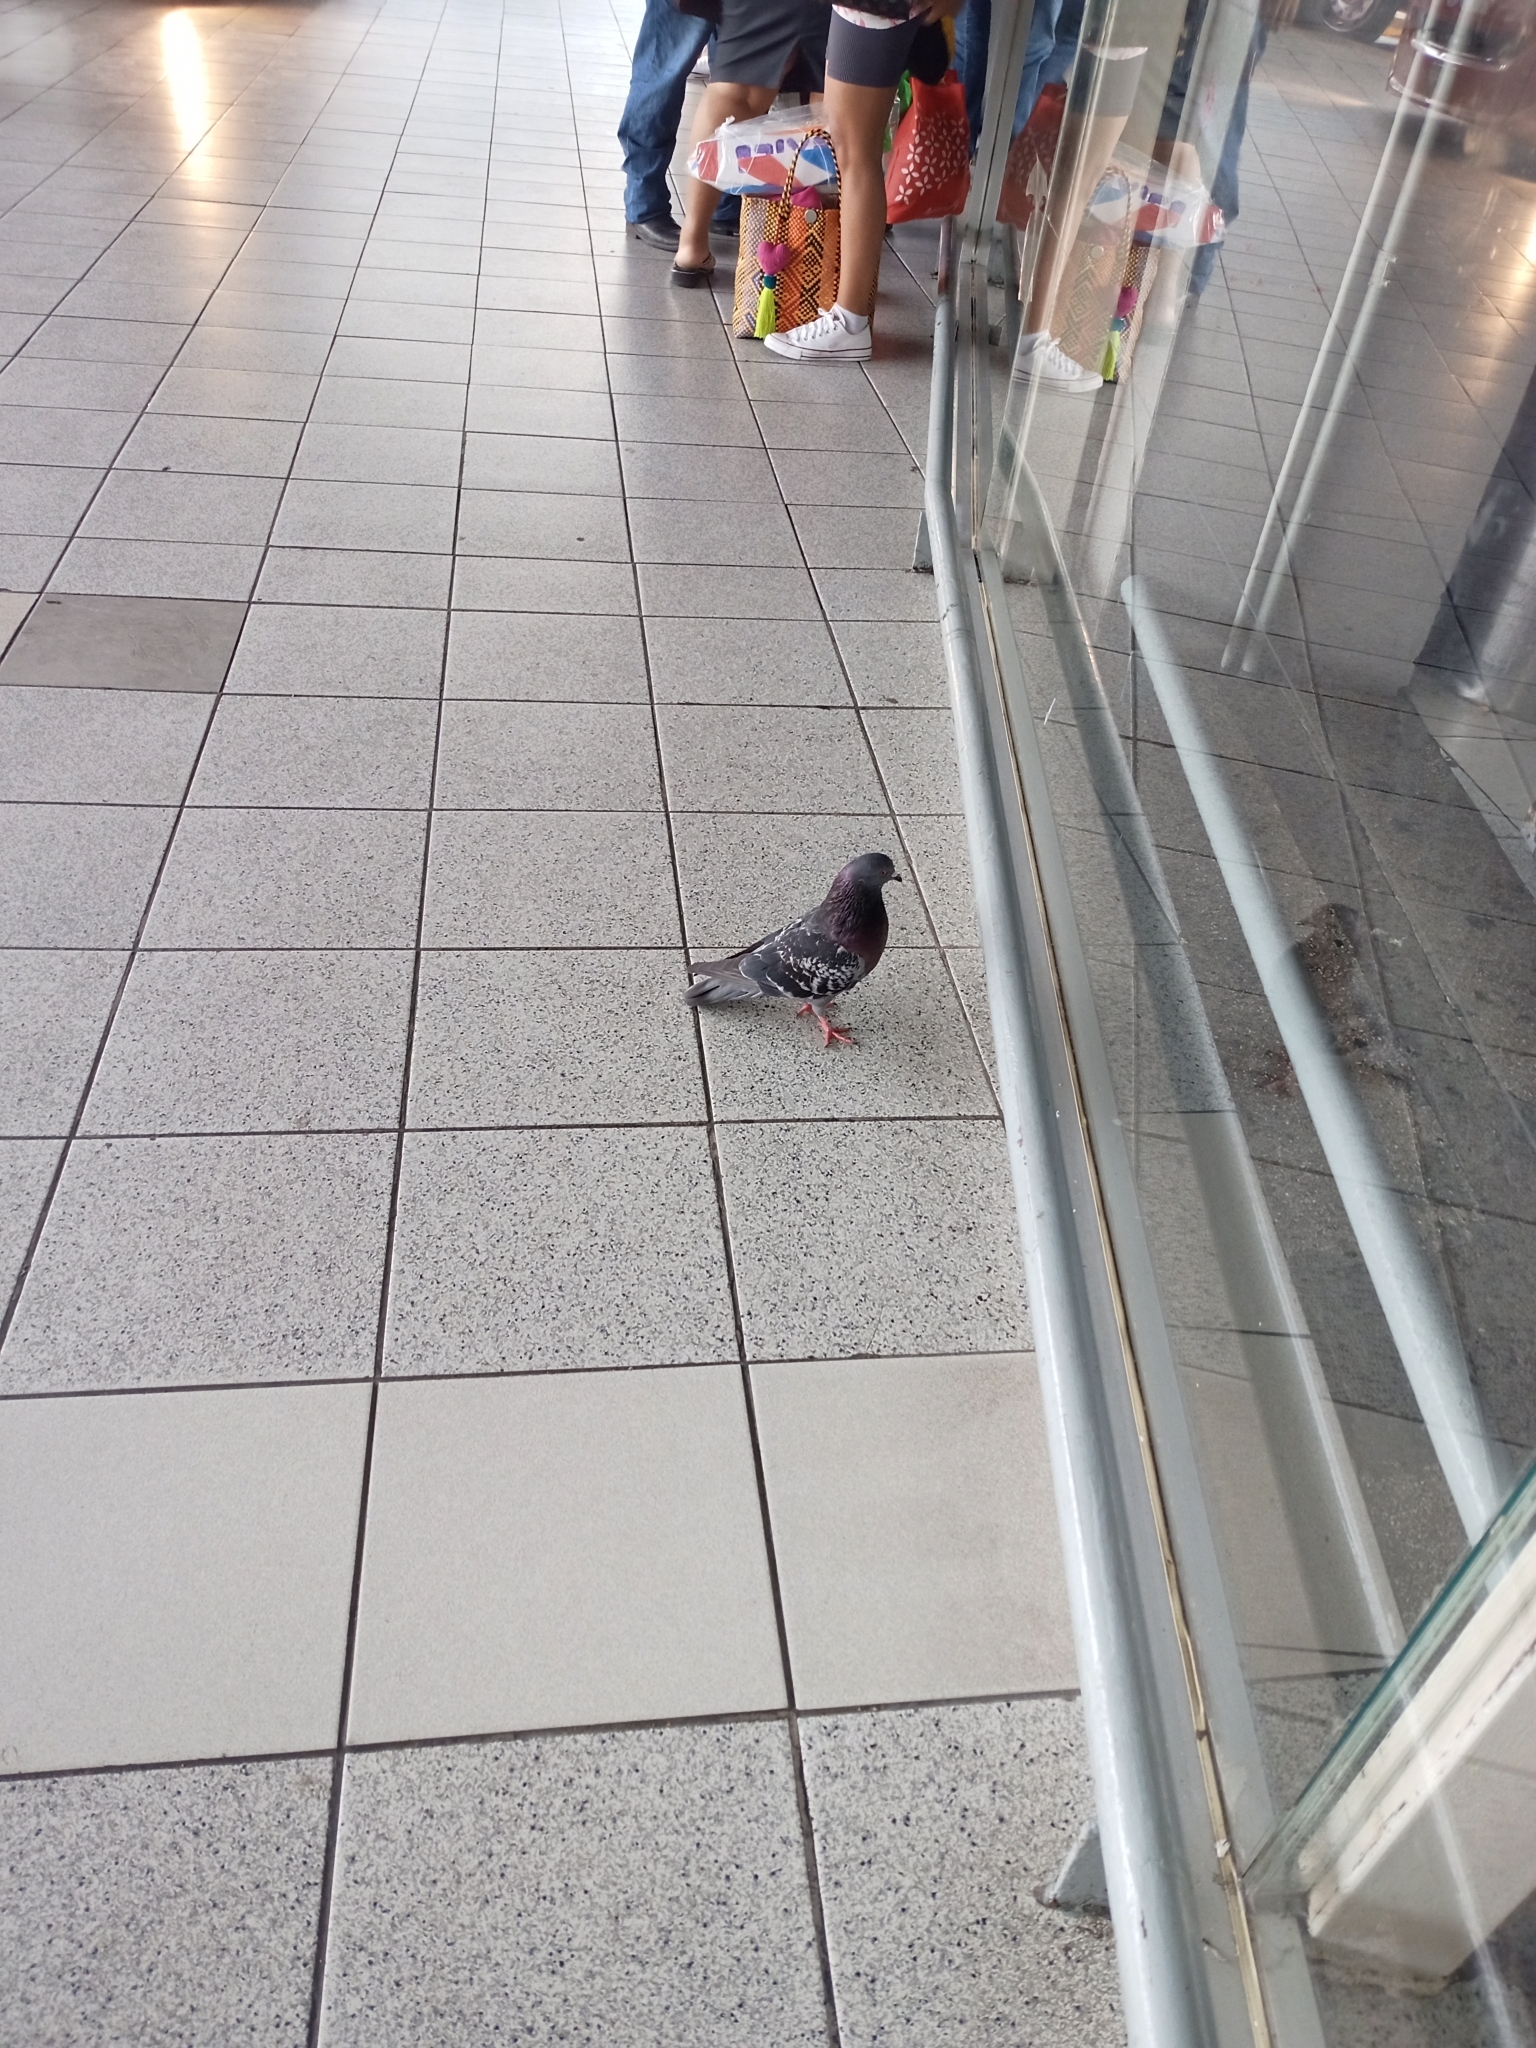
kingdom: Animalia
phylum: Chordata
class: Aves
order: Columbiformes
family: Columbidae
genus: Columba
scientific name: Columba livia
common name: Rock pigeon
